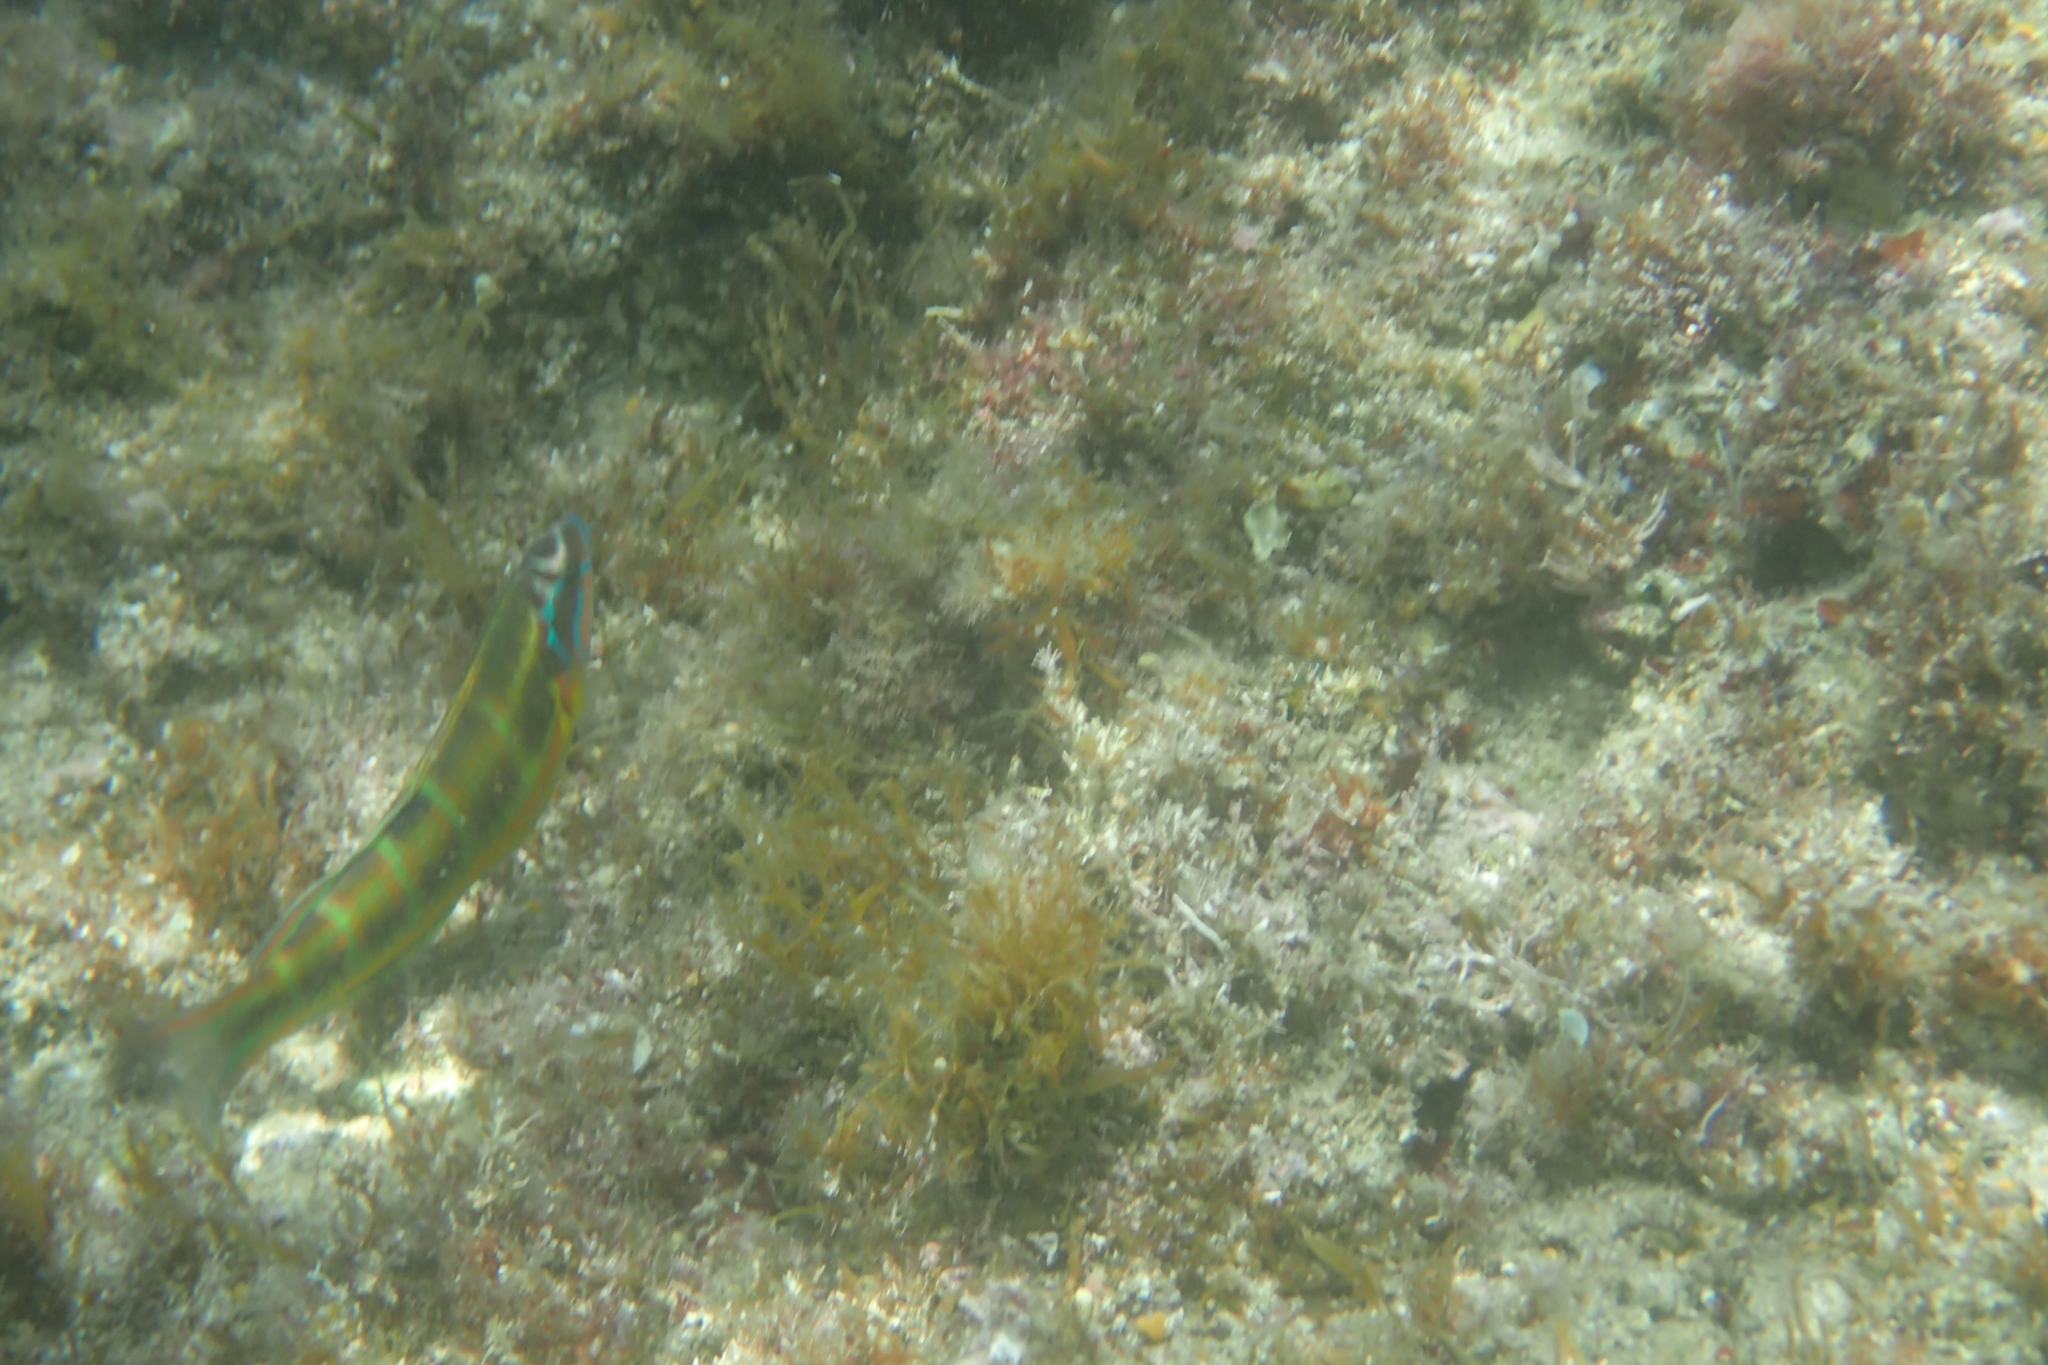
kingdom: Animalia
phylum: Chordata
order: Perciformes
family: Labridae
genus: Thalassoma
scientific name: Thalassoma pavo
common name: Ornate wrasse
